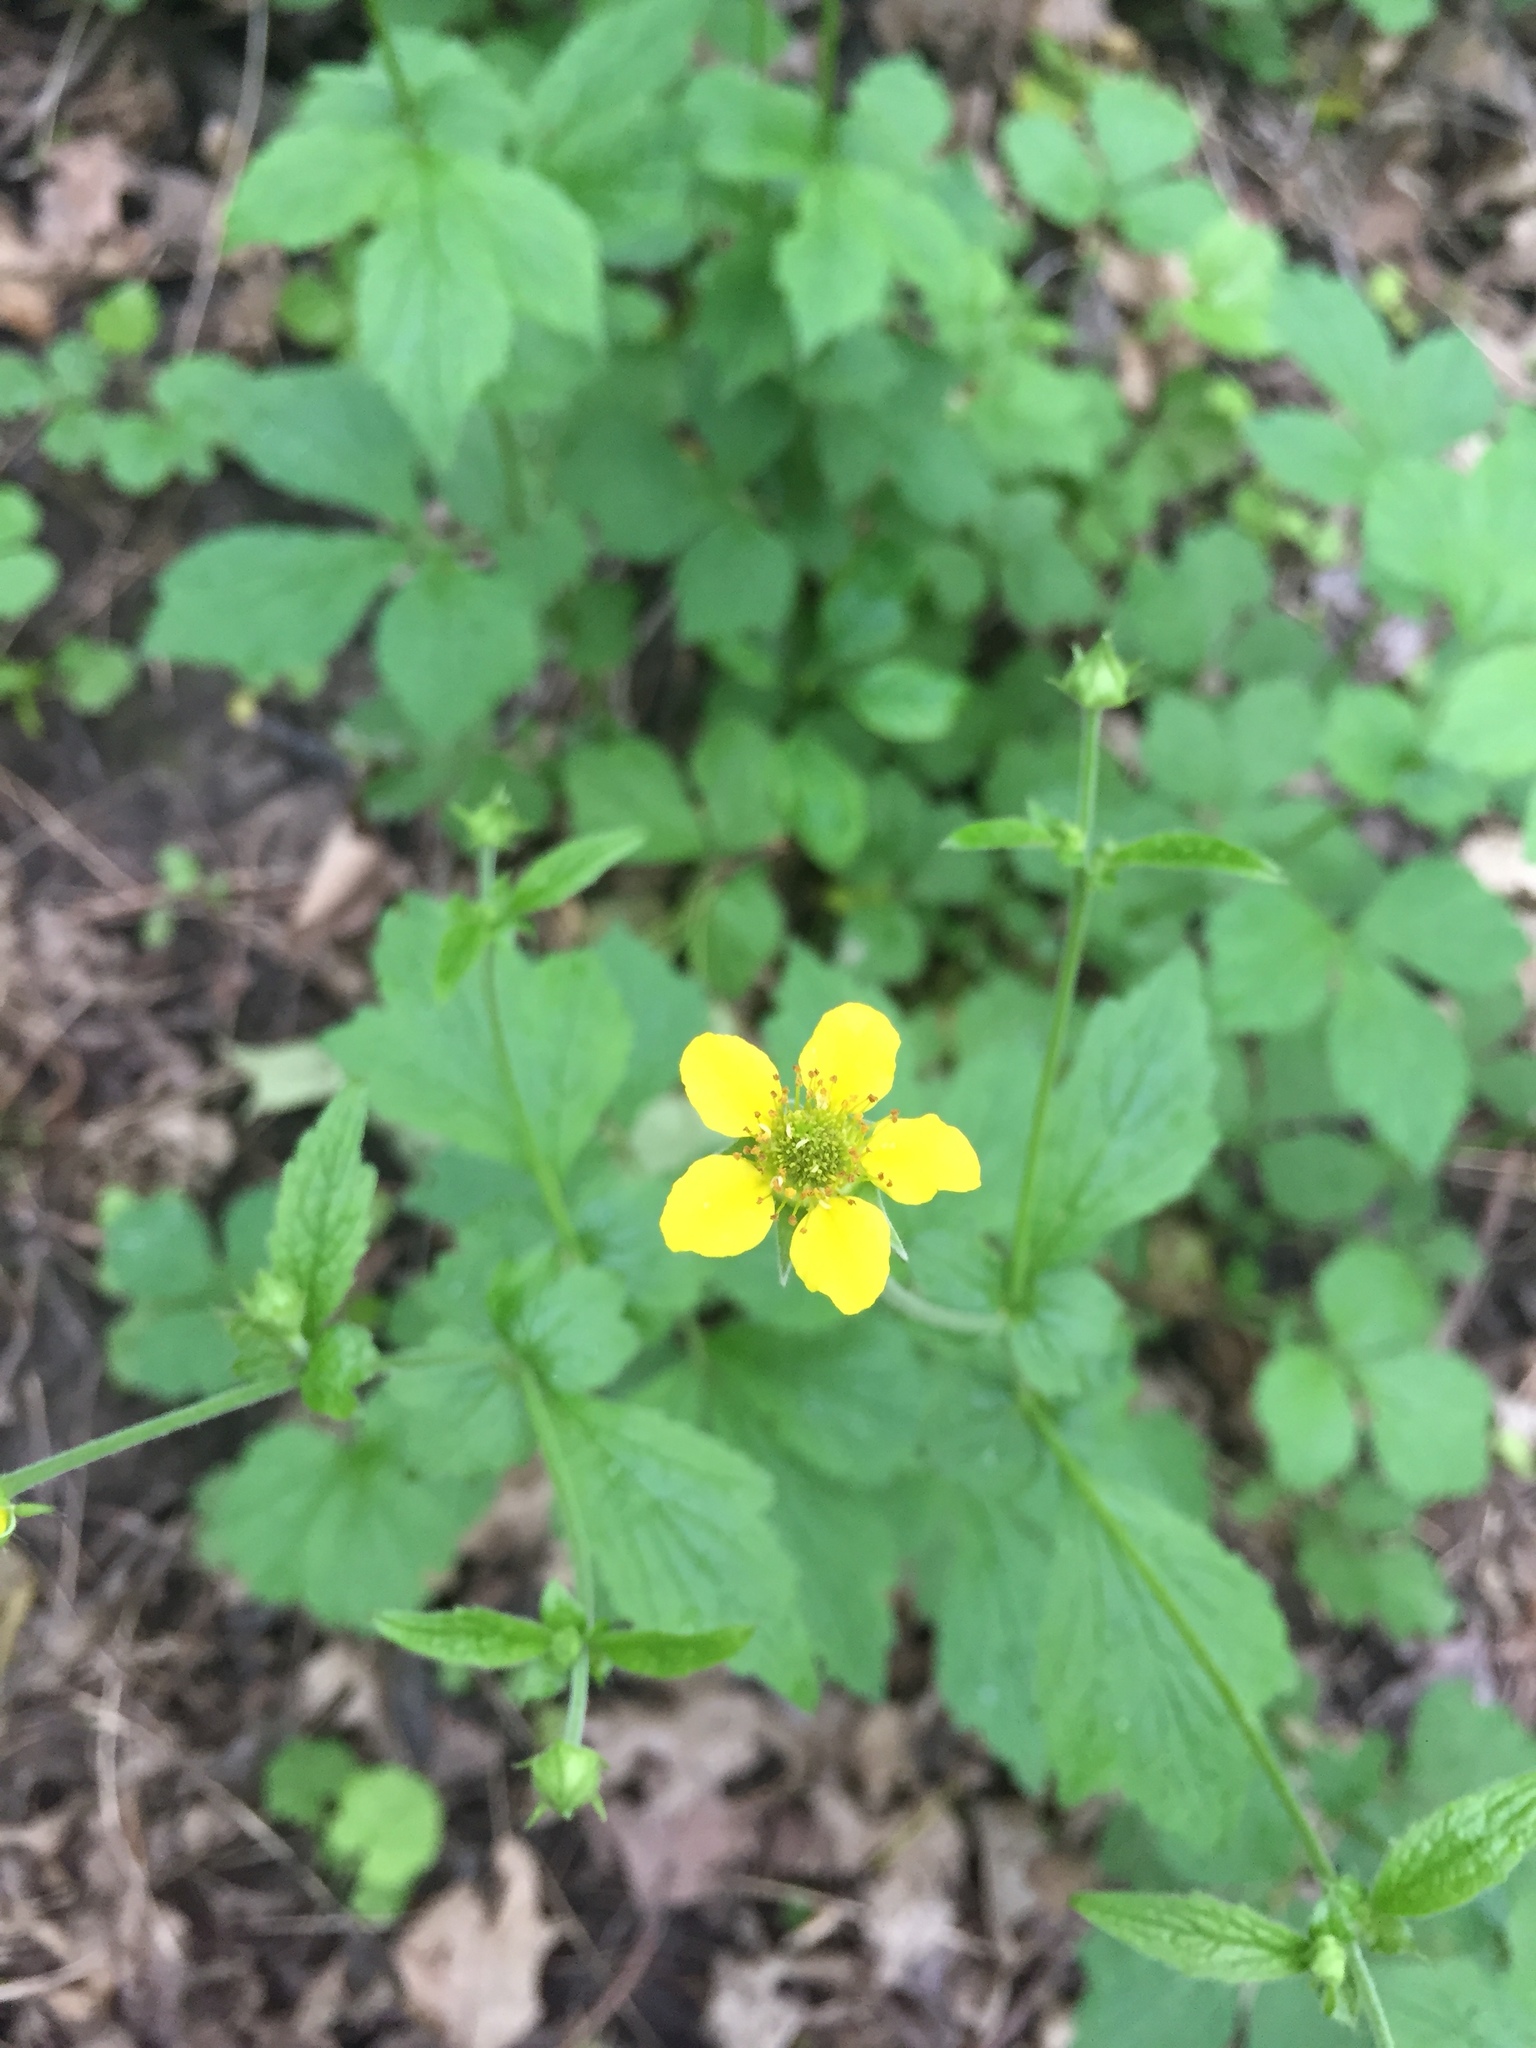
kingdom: Plantae
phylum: Tracheophyta
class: Magnoliopsida
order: Rosales
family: Rosaceae
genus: Geum
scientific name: Geum aleppicum
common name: Yellow avens
